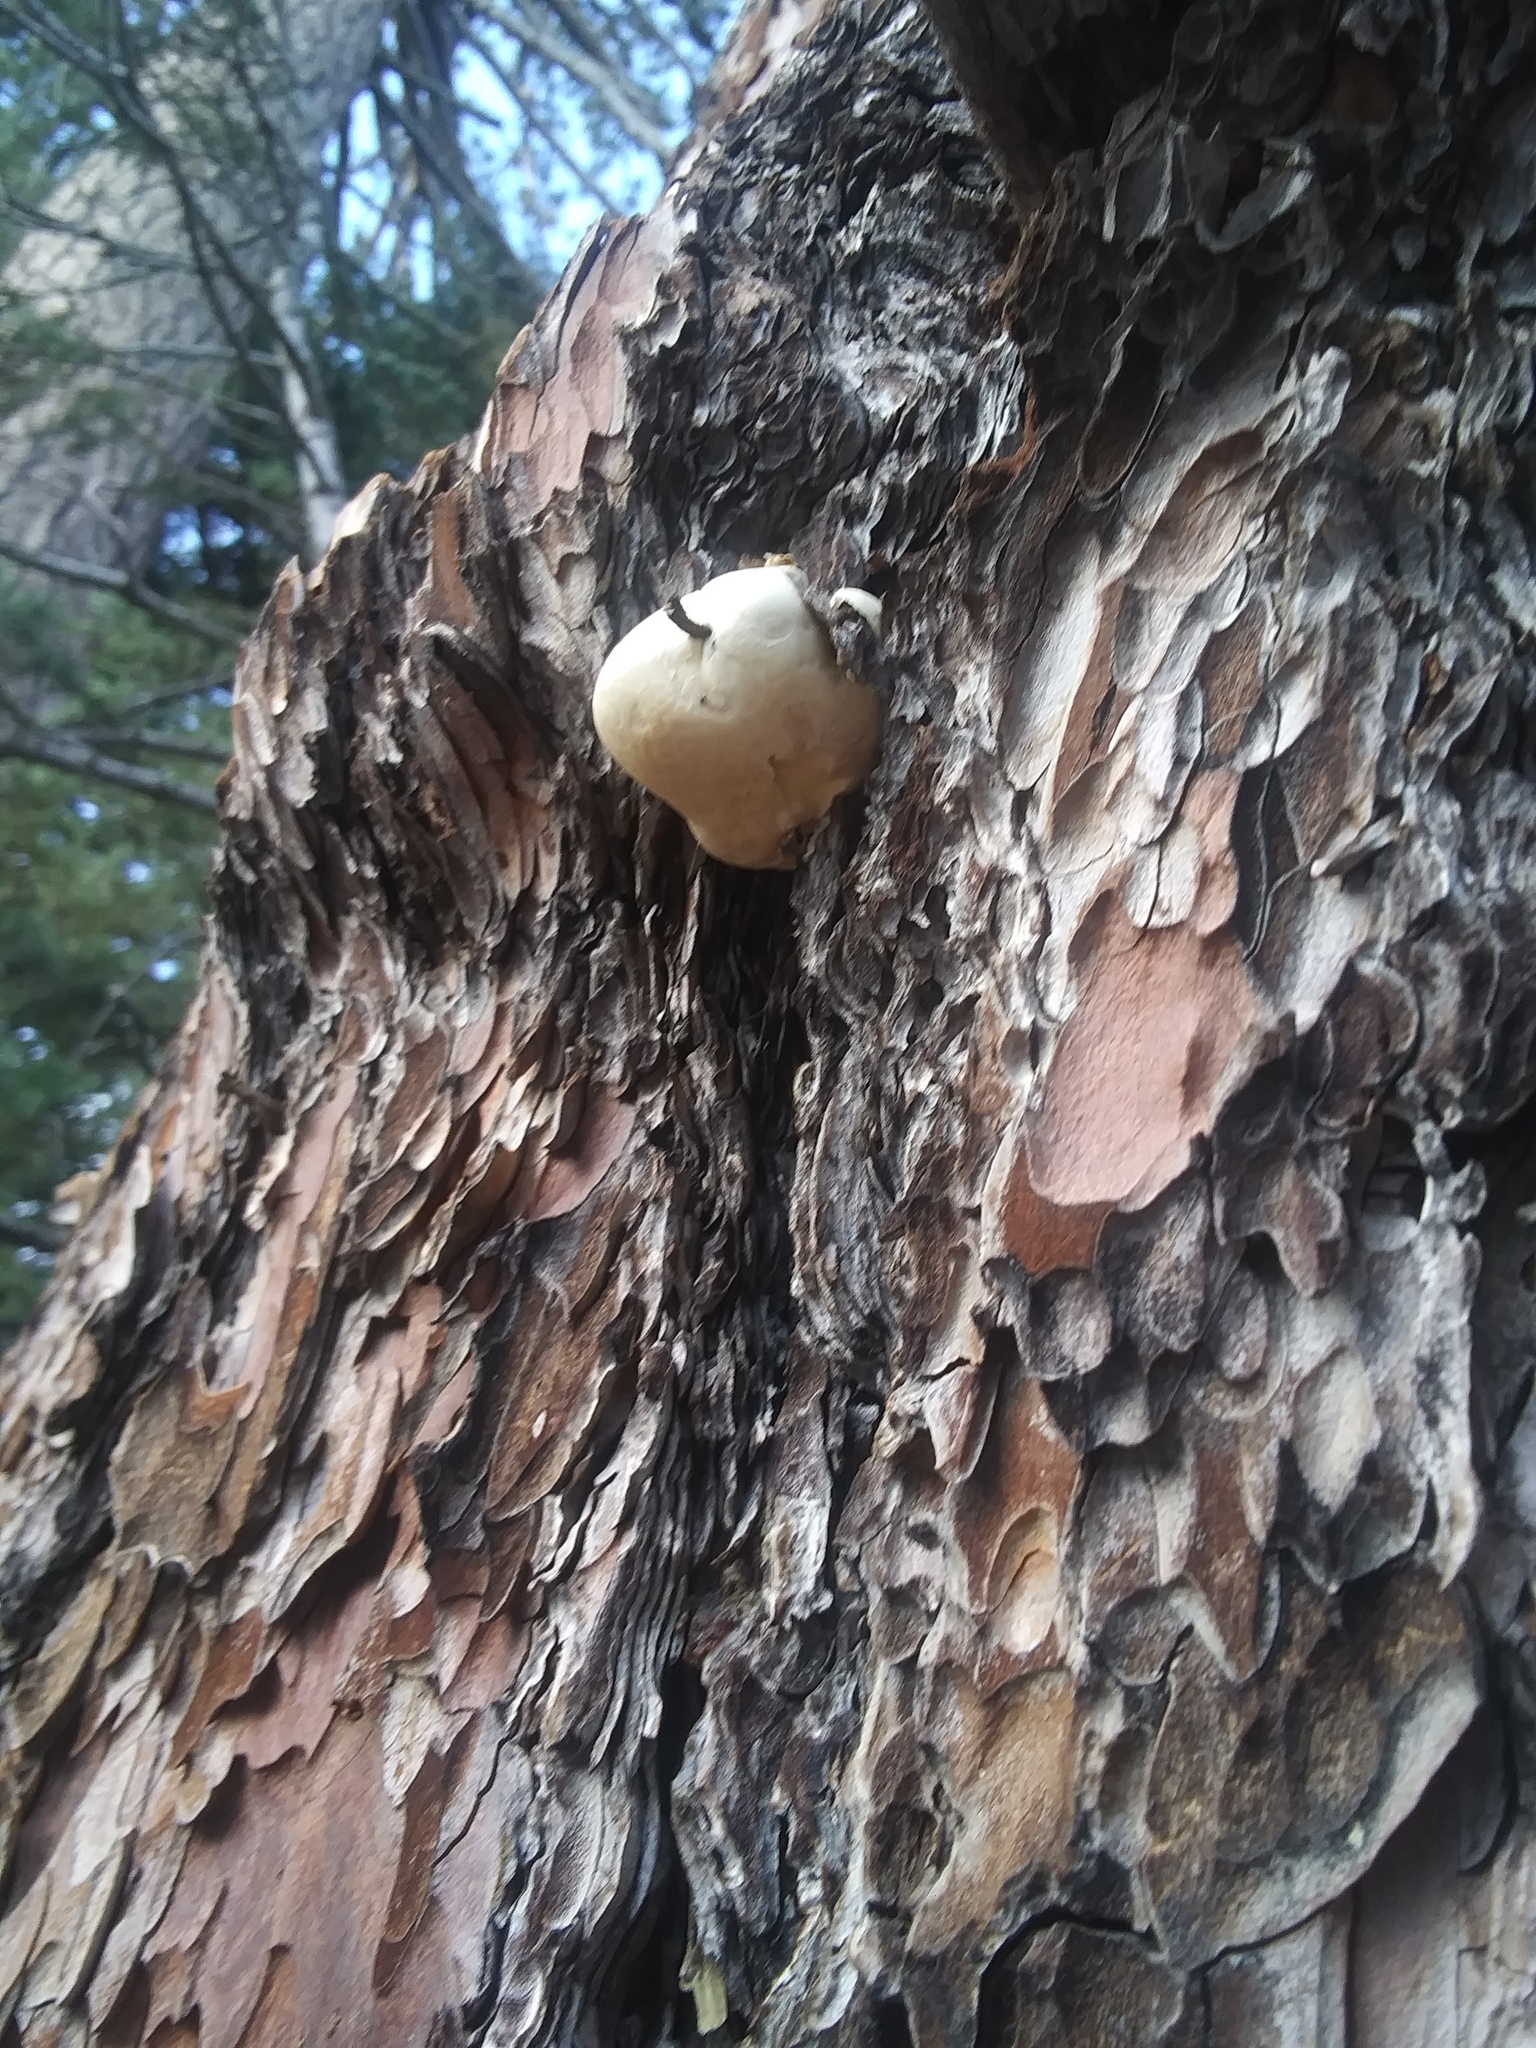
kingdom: Fungi
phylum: Basidiomycota
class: Agaricomycetes
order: Polyporales
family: Polyporaceae
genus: Cryptoporus
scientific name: Cryptoporus volvatus
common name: Veiled polypore
